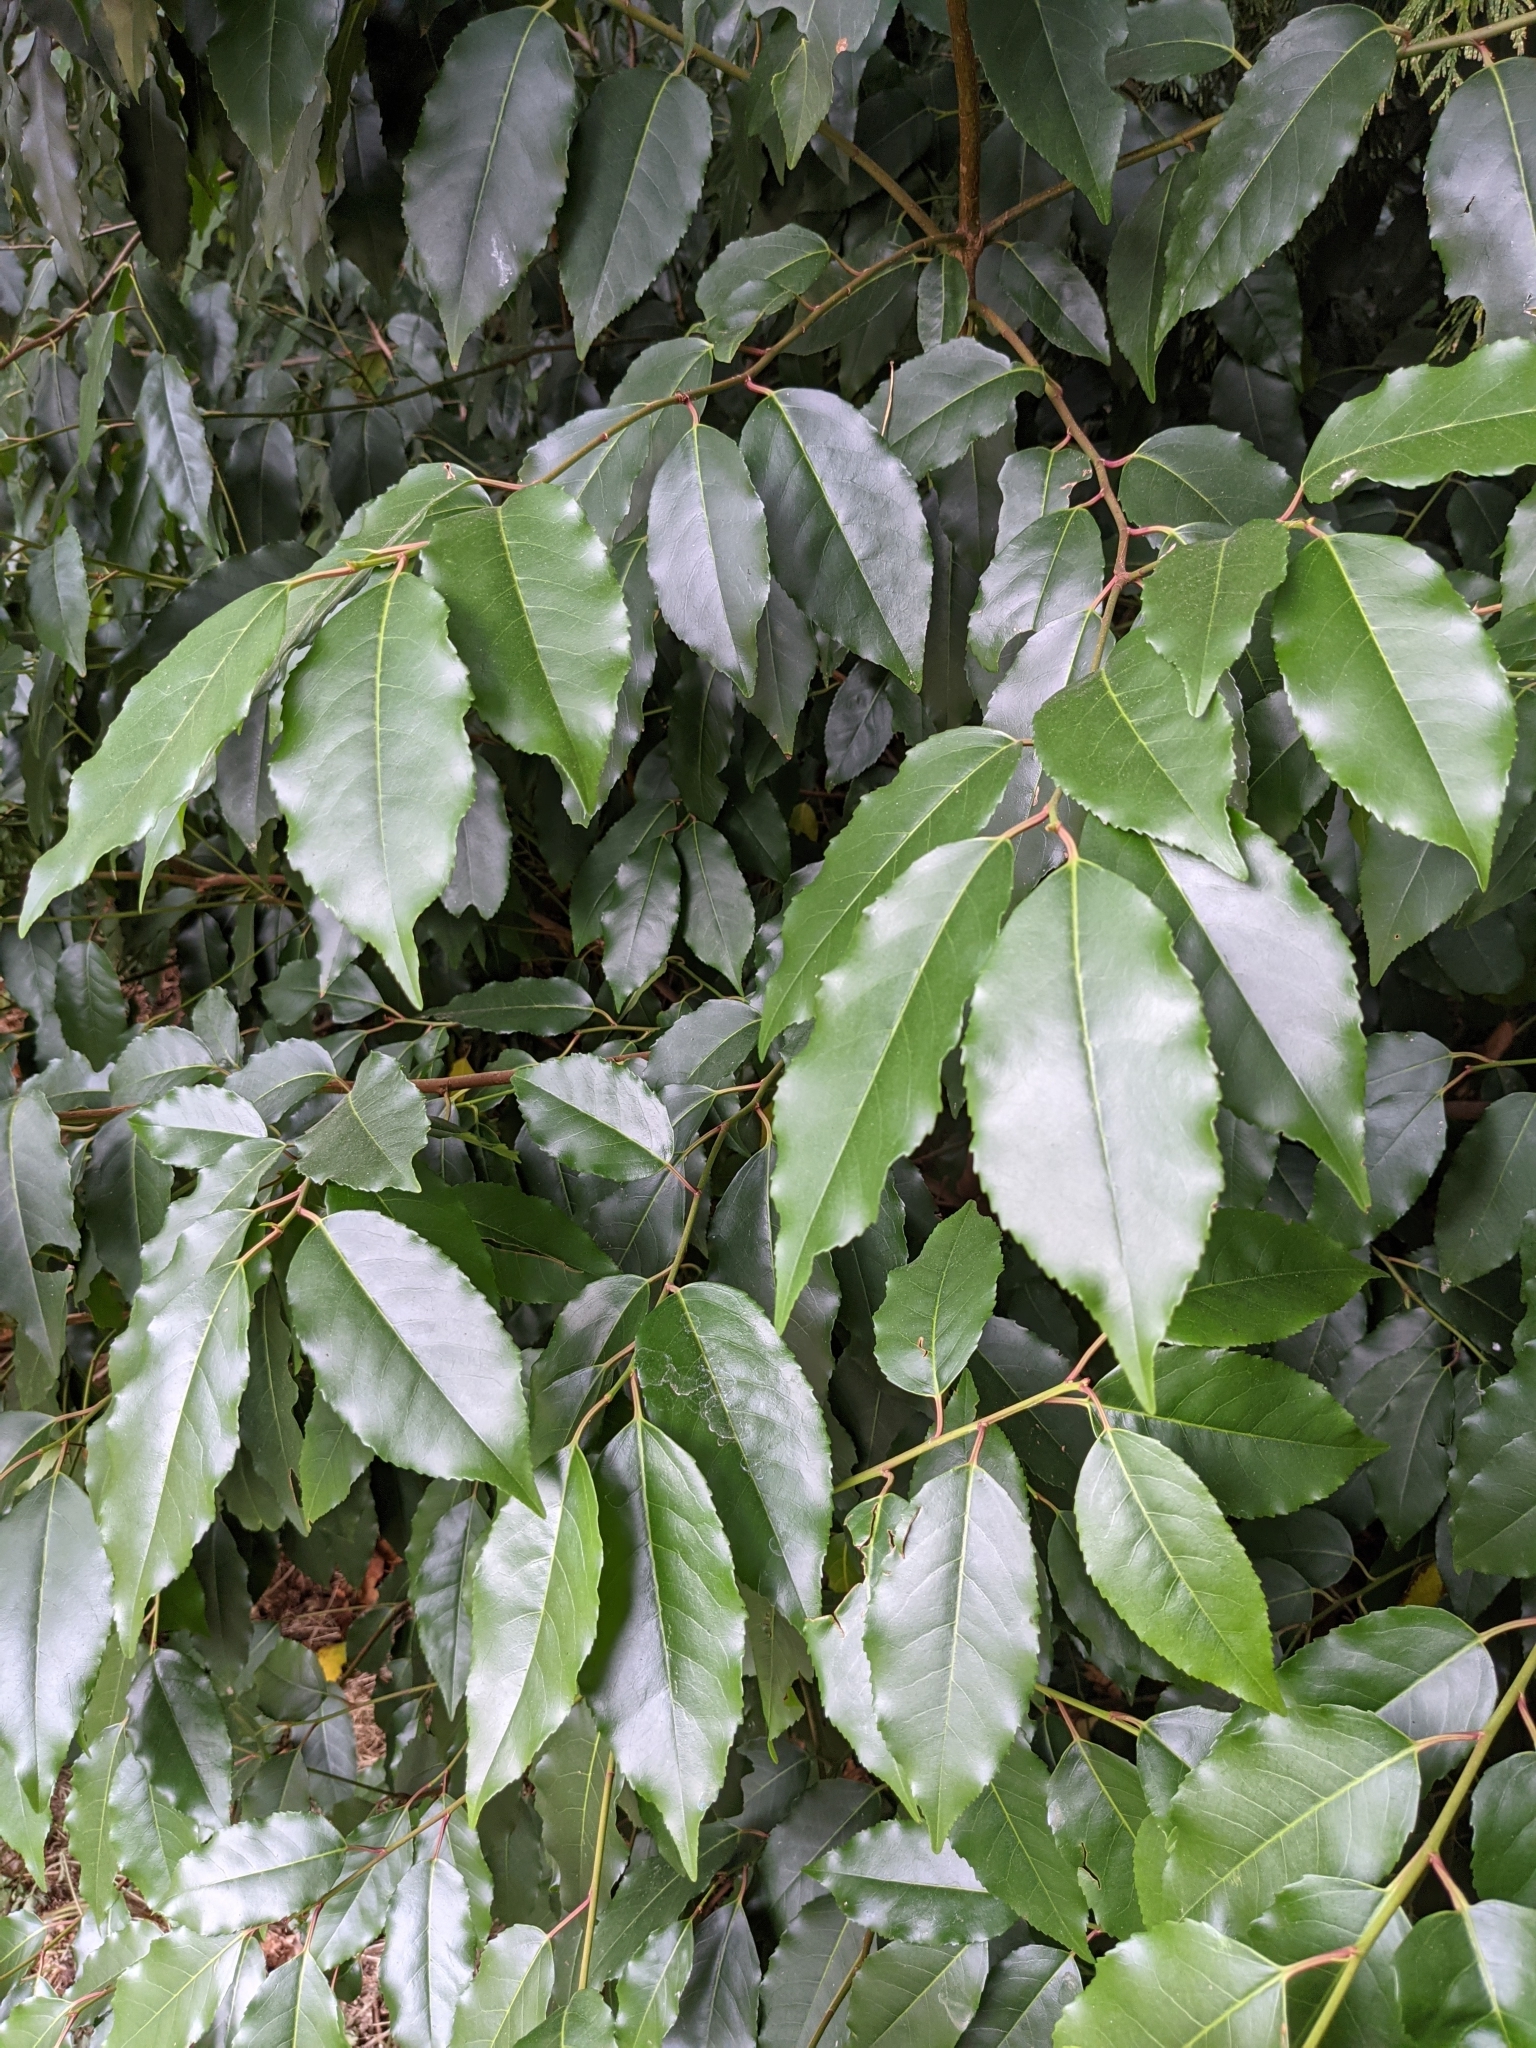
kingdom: Plantae
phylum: Tracheophyta
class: Magnoliopsida
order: Rosales
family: Rosaceae
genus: Prunus
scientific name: Prunus lusitanica
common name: Portugal laurel
